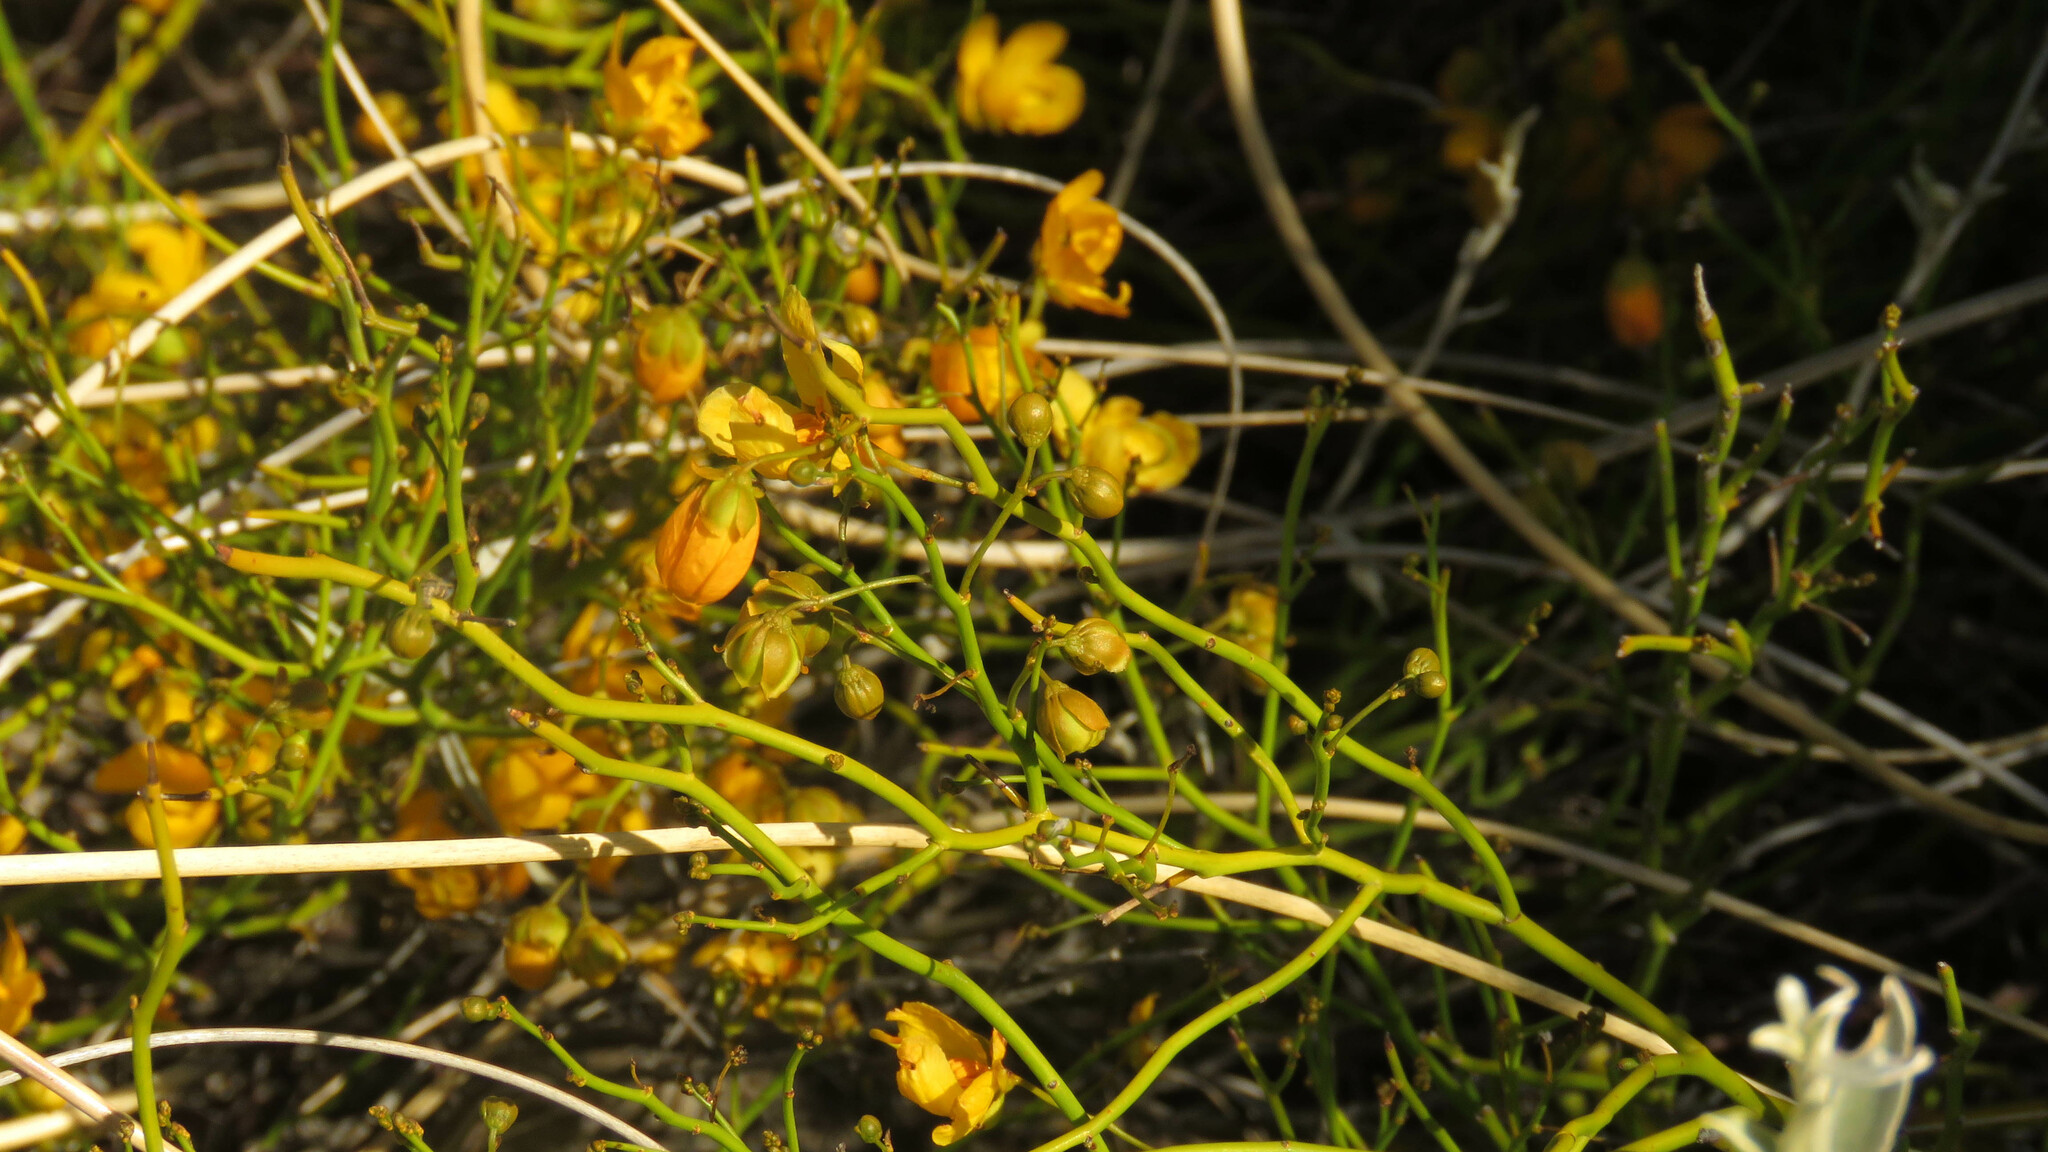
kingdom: Plantae
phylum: Tracheophyta
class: Magnoliopsida
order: Fabales
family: Fabaceae
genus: Senna
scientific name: Senna pachyrrhiza
